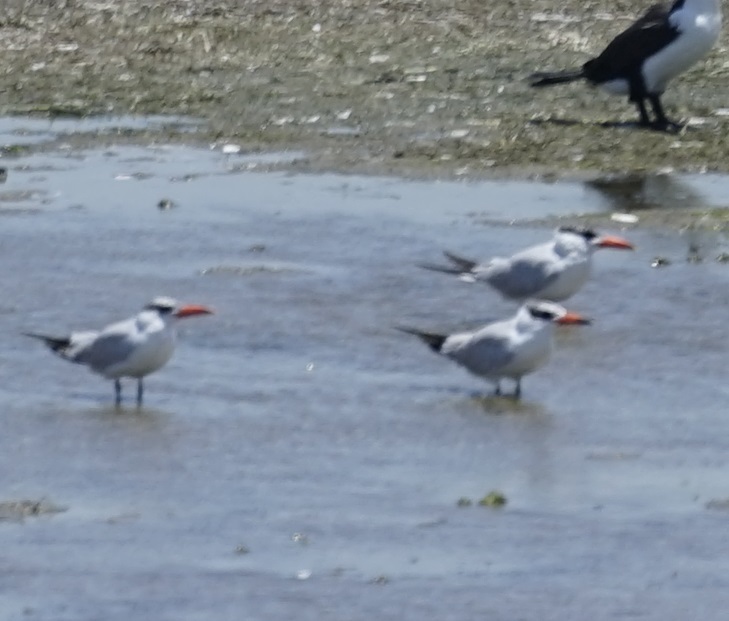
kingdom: Animalia
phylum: Chordata
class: Aves
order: Charadriiformes
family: Laridae
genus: Hydroprogne
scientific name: Hydroprogne caspia
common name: Caspian tern
